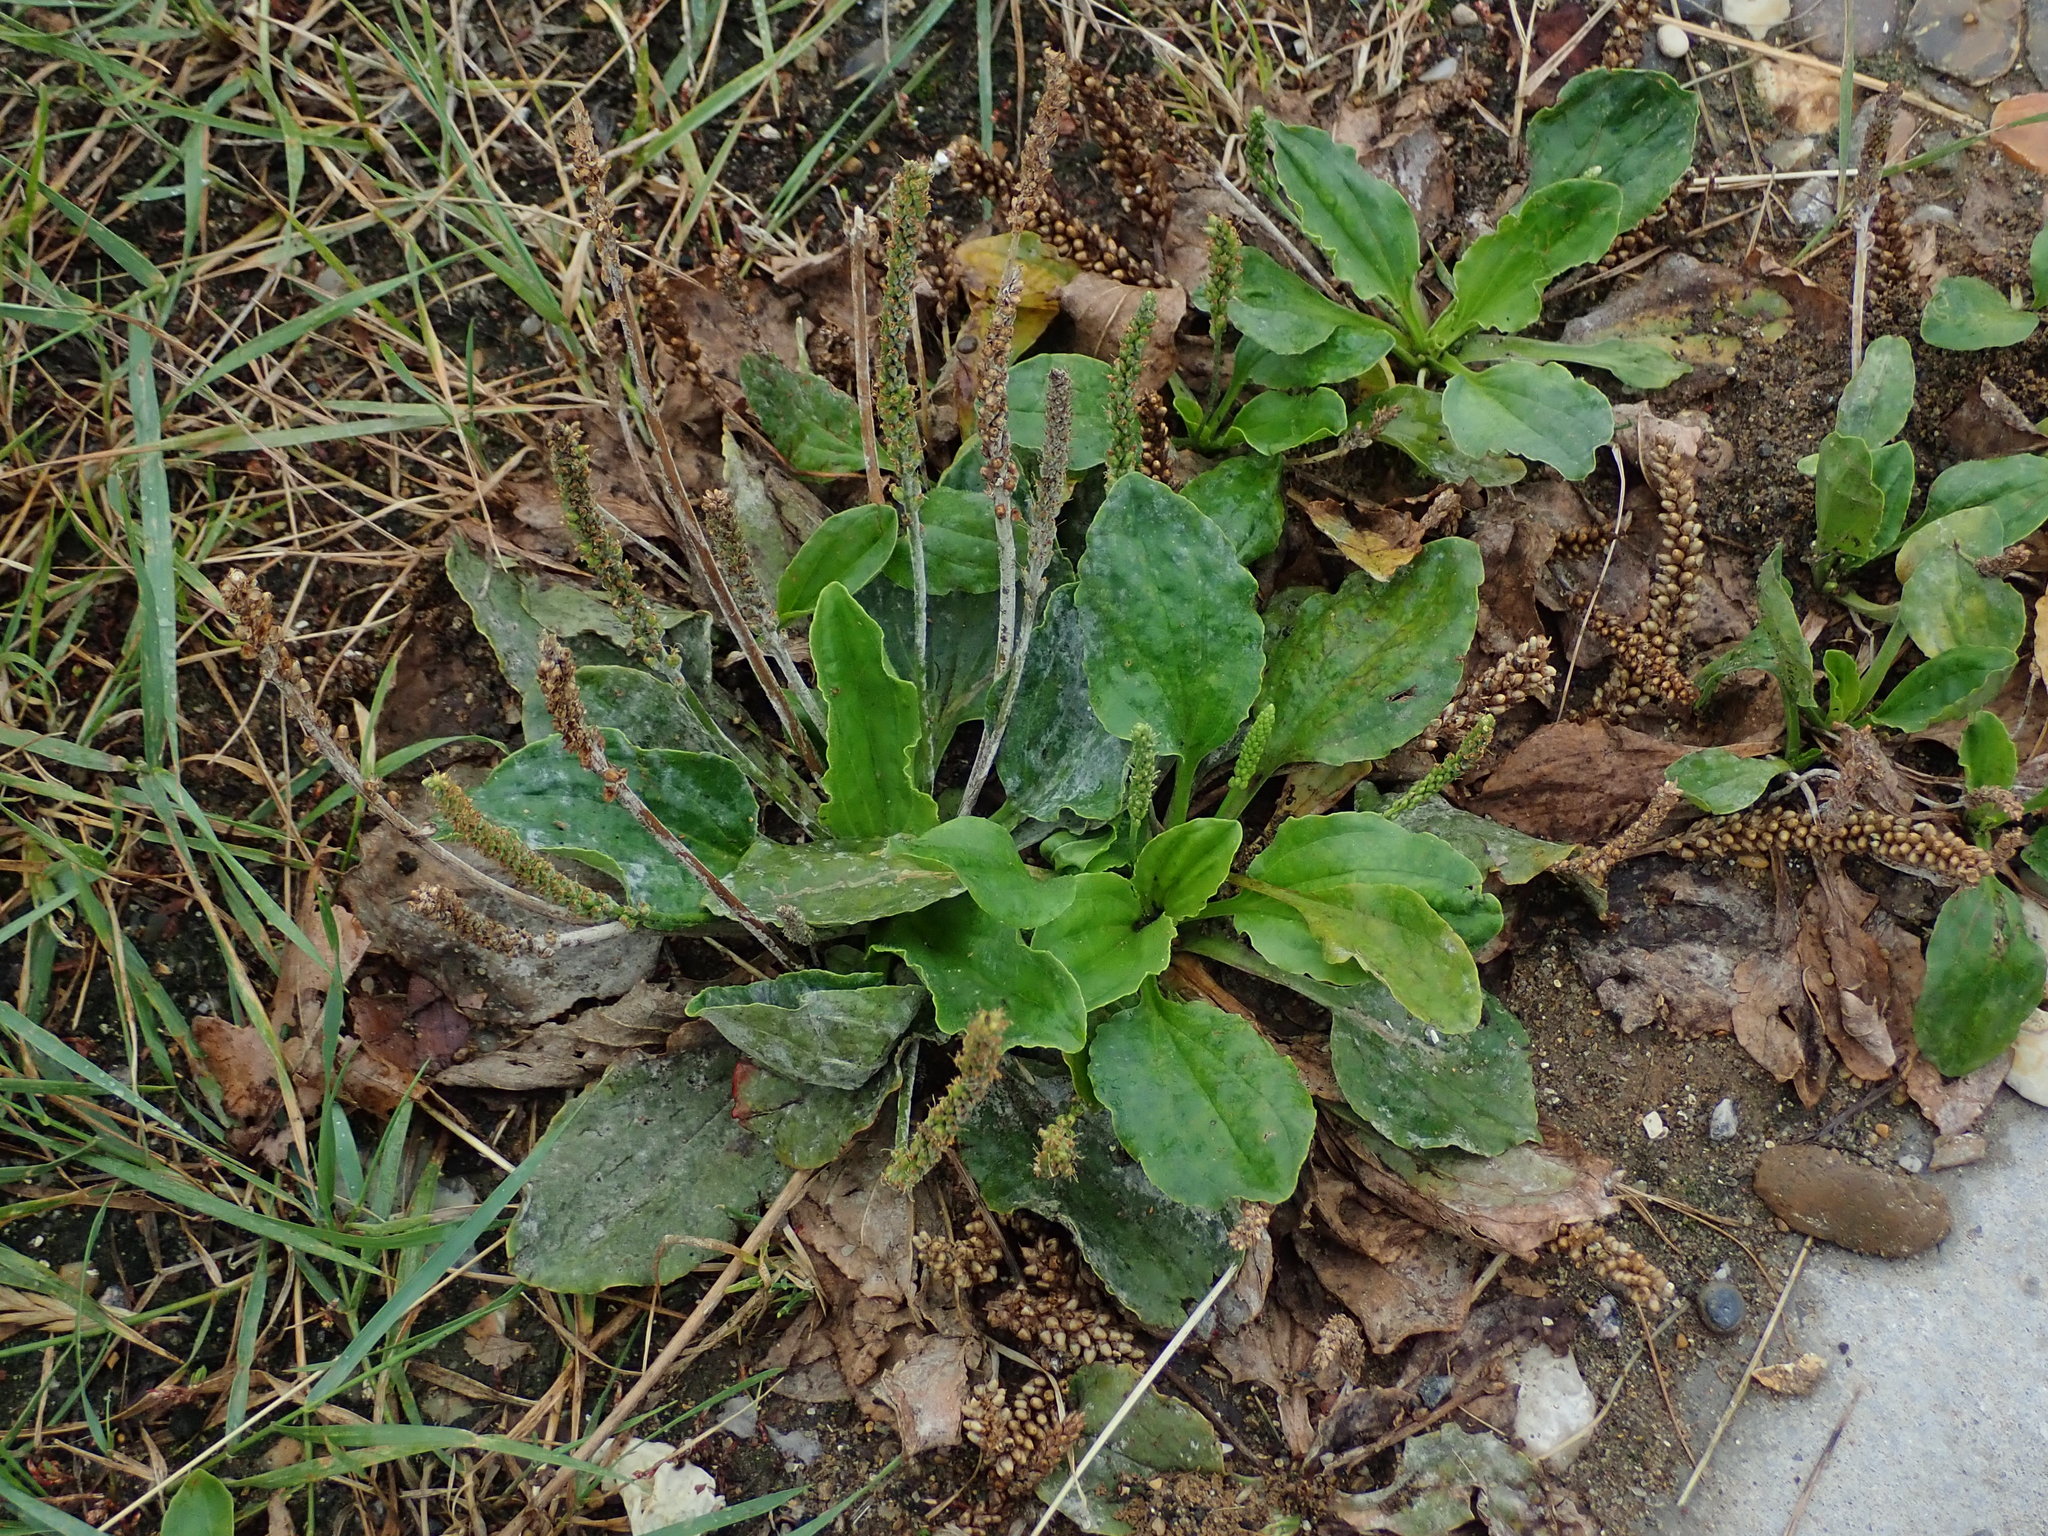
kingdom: Plantae
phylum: Tracheophyta
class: Magnoliopsida
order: Lamiales
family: Plantaginaceae
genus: Plantago
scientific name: Plantago major
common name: Common plantain
